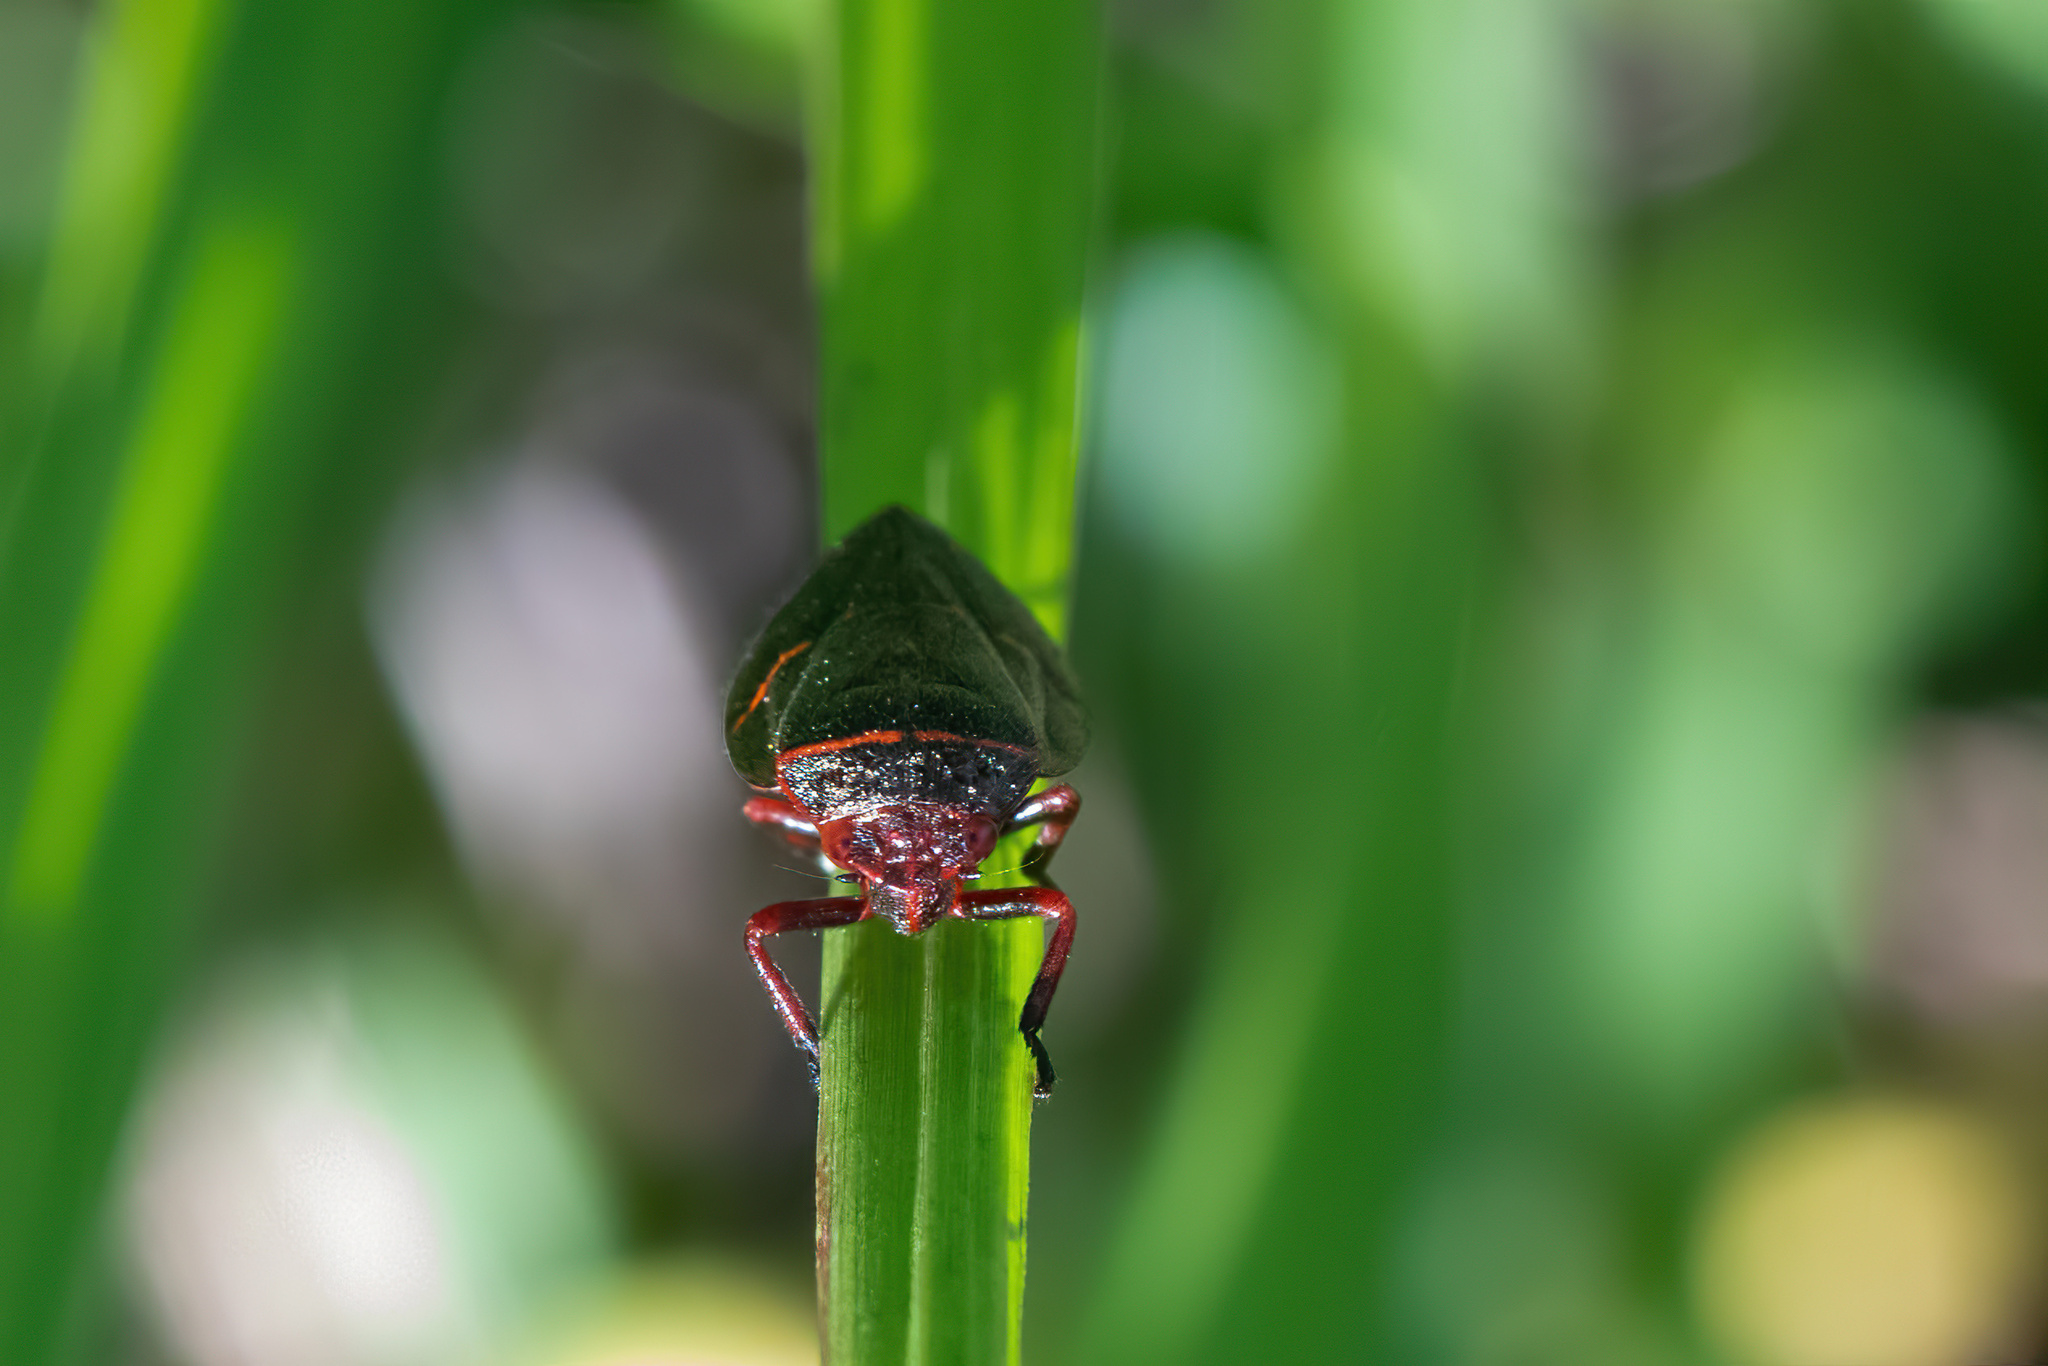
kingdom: Animalia
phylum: Arthropoda
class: Insecta
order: Hemiptera
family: Cercopidae
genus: Prosapia
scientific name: Prosapia bicincta
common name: Twolined spittlebug
